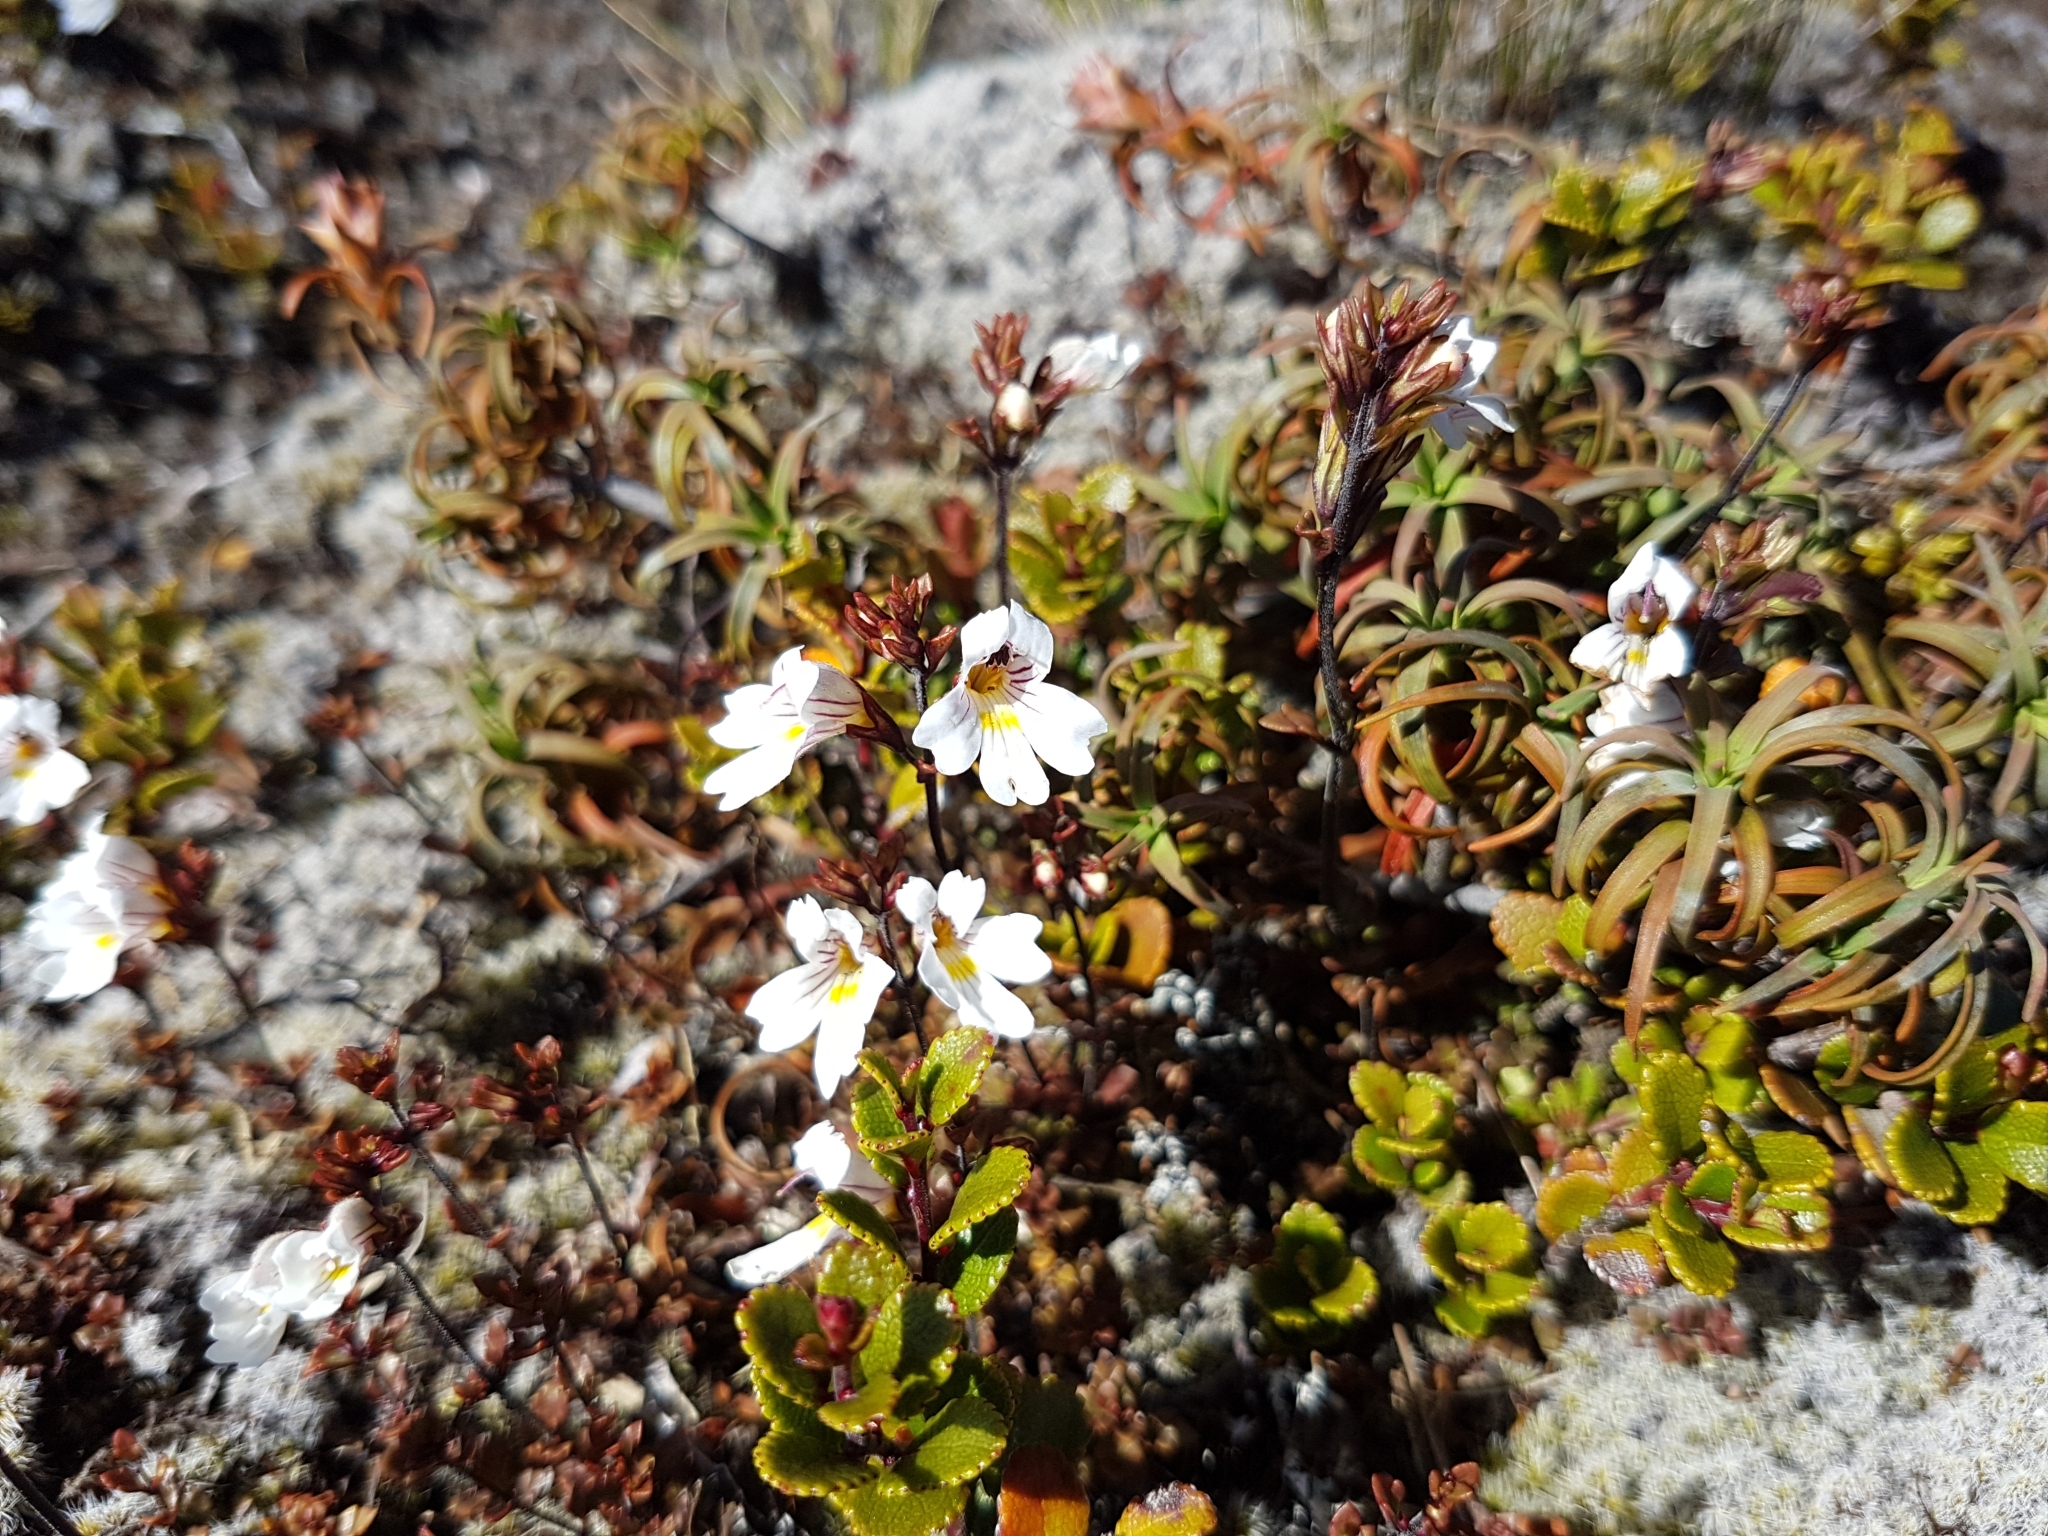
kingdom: Plantae
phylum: Tracheophyta
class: Magnoliopsida
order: Lamiales
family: Orobanchaceae
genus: Euphrasia
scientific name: Euphrasia cuneata
